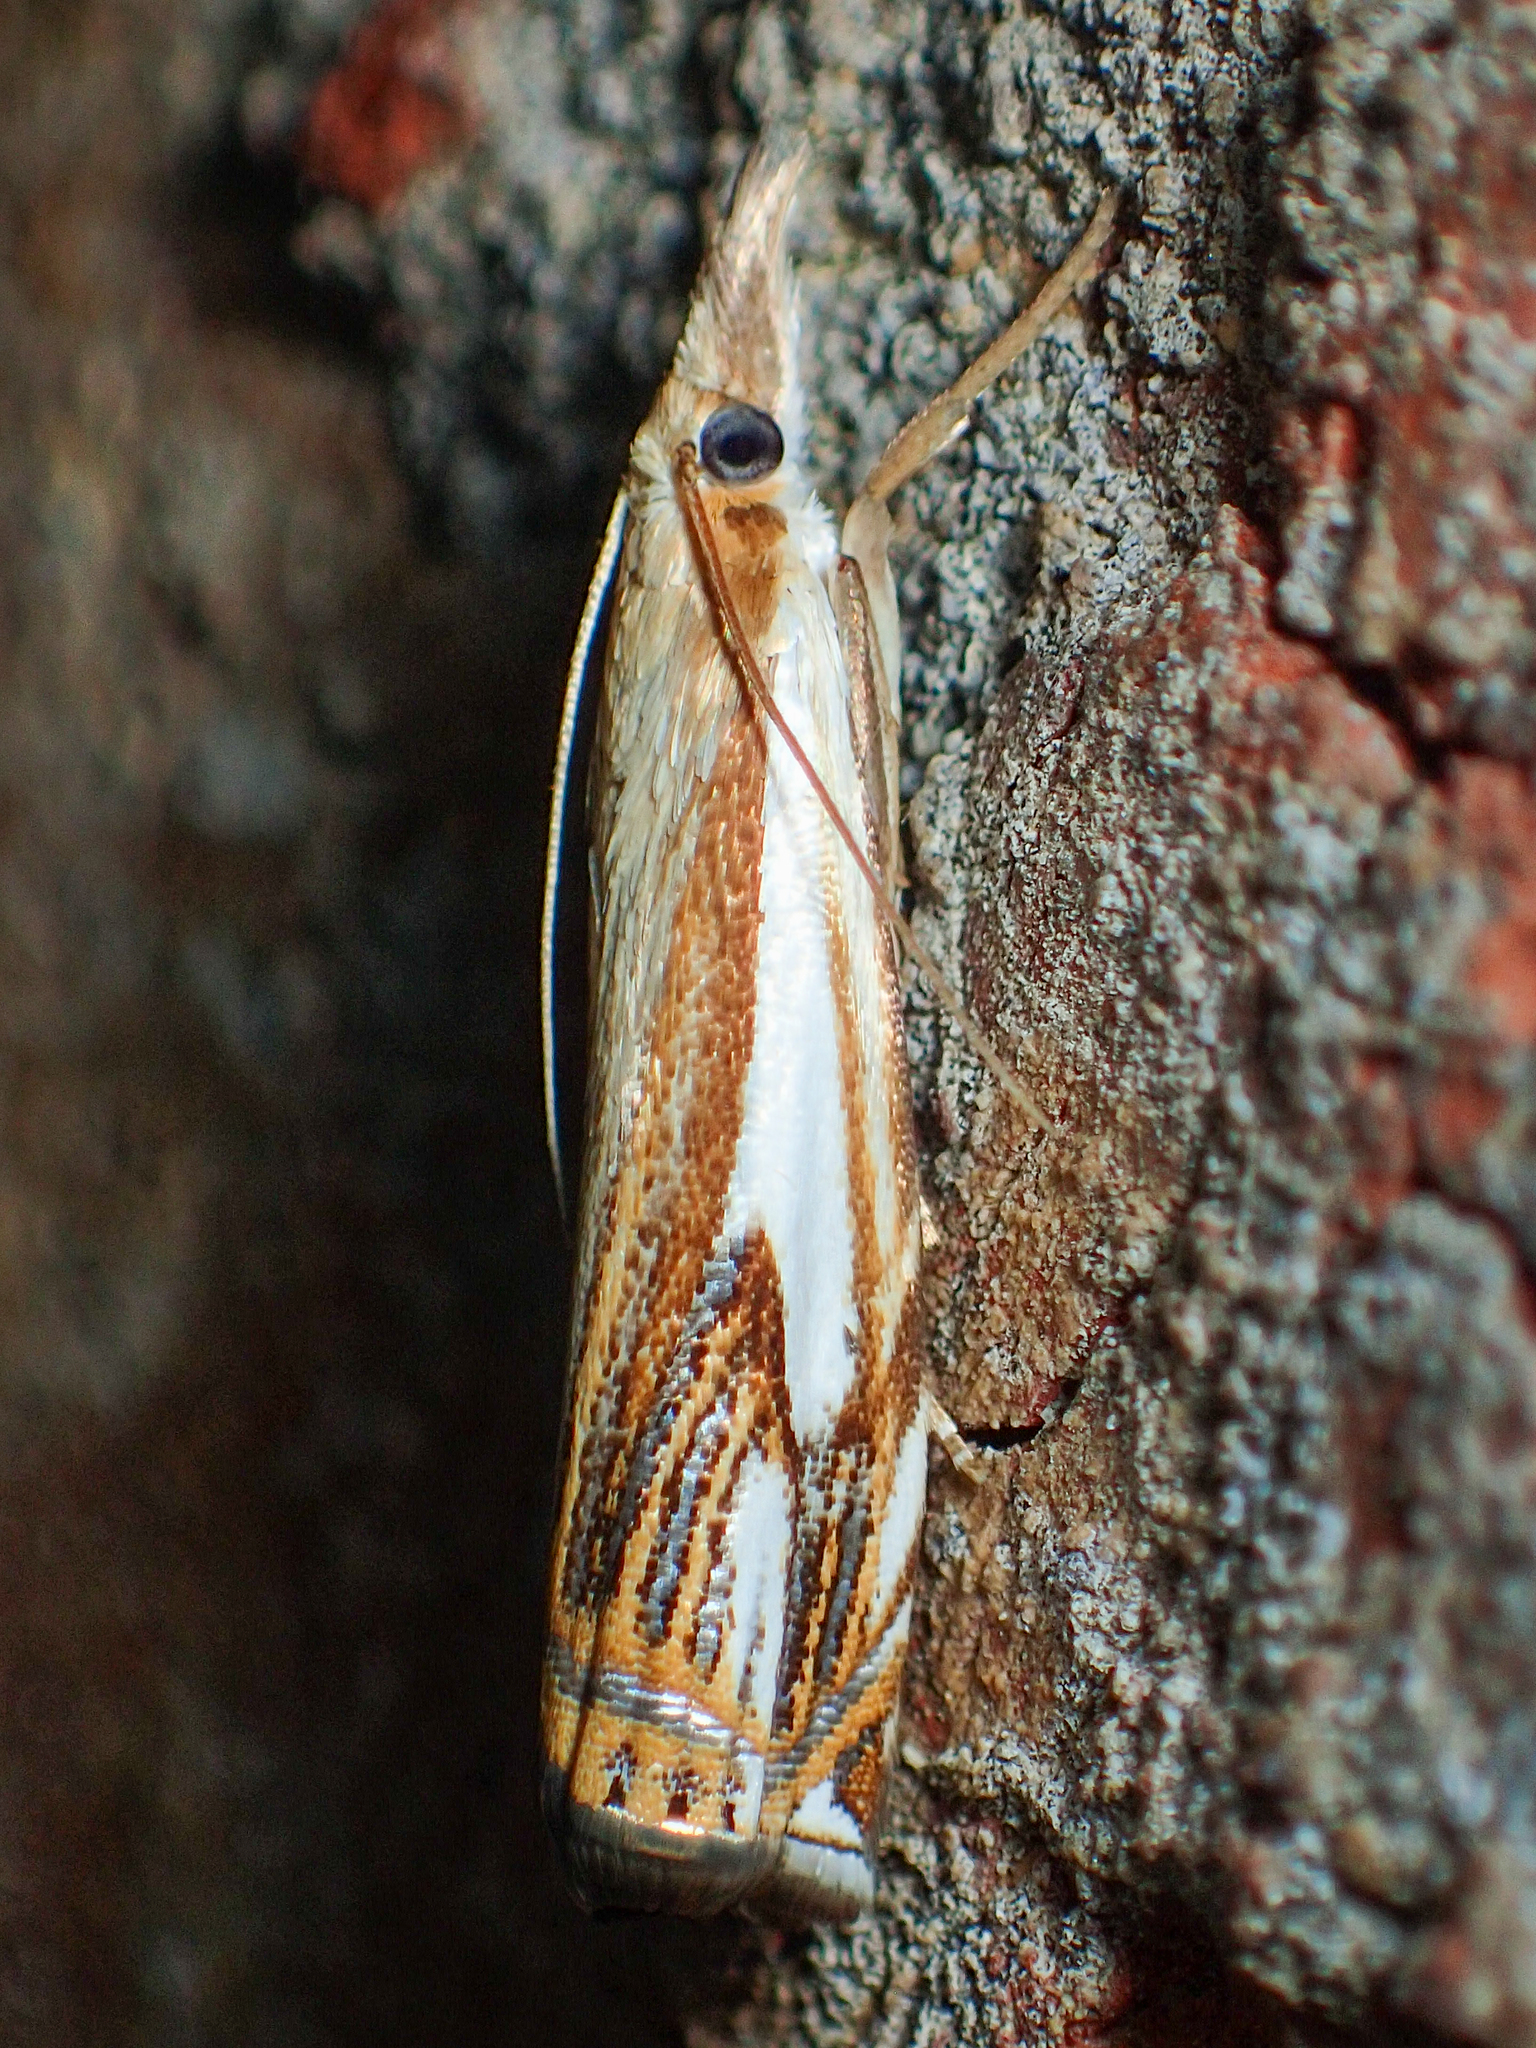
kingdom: Animalia
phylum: Arthropoda
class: Insecta
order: Lepidoptera
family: Crambidae
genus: Crambus
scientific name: Crambus agitatellus
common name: Double-banded grass-veneer
